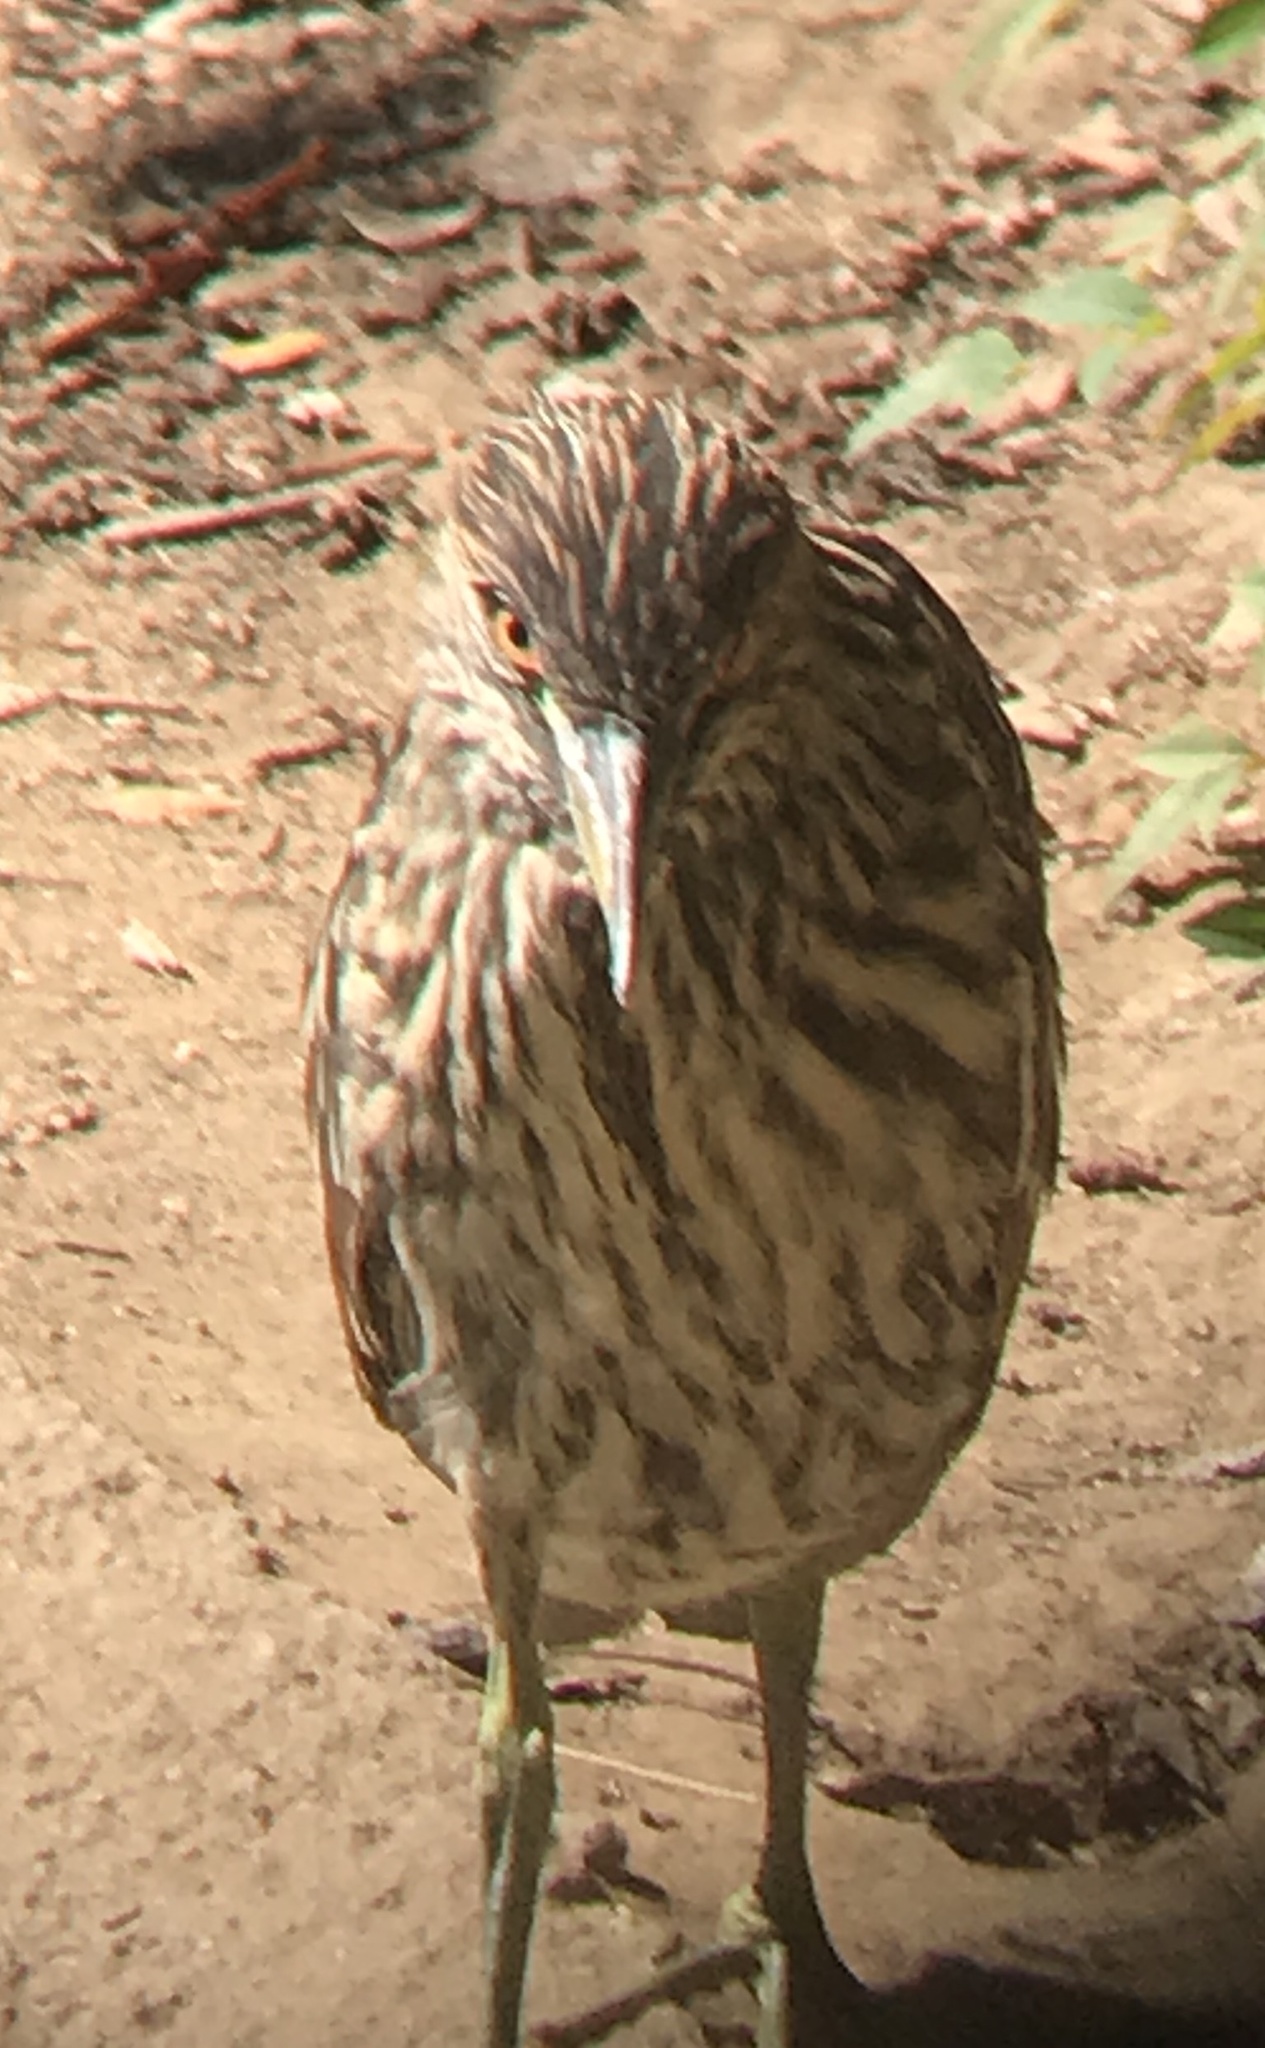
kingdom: Animalia
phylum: Chordata
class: Aves
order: Pelecaniformes
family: Ardeidae
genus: Nycticorax
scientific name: Nycticorax nycticorax
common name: Black-crowned night heron
